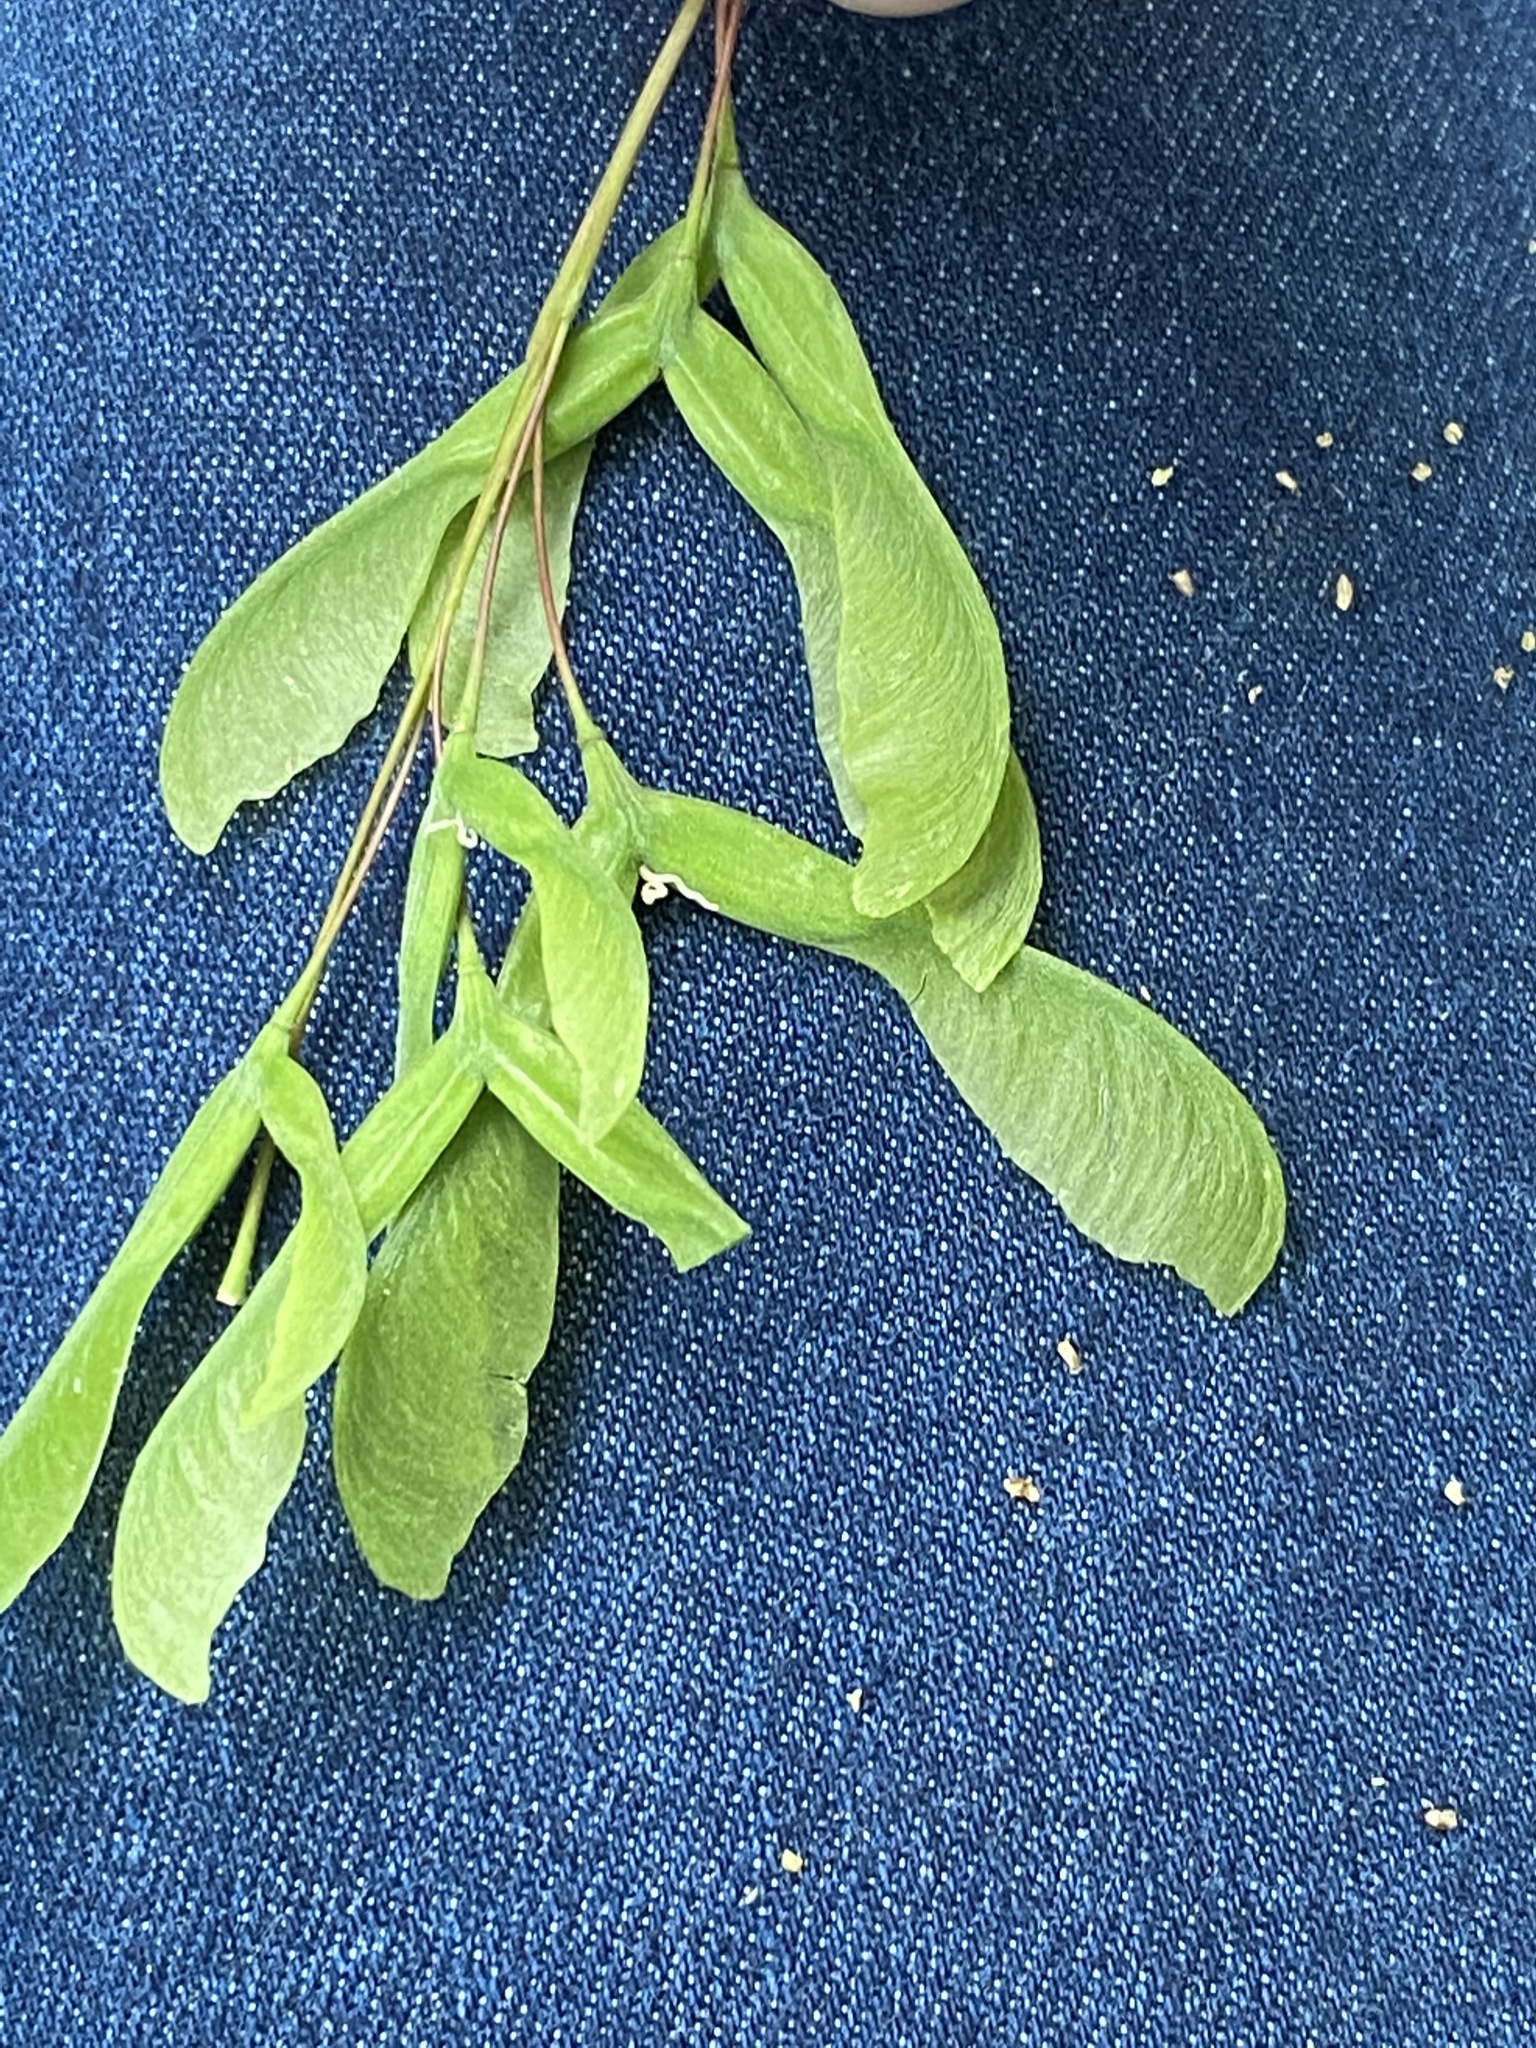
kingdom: Plantae
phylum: Tracheophyta
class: Magnoliopsida
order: Sapindales
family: Sapindaceae
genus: Acer
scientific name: Acer negundo
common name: Ashleaf maple
